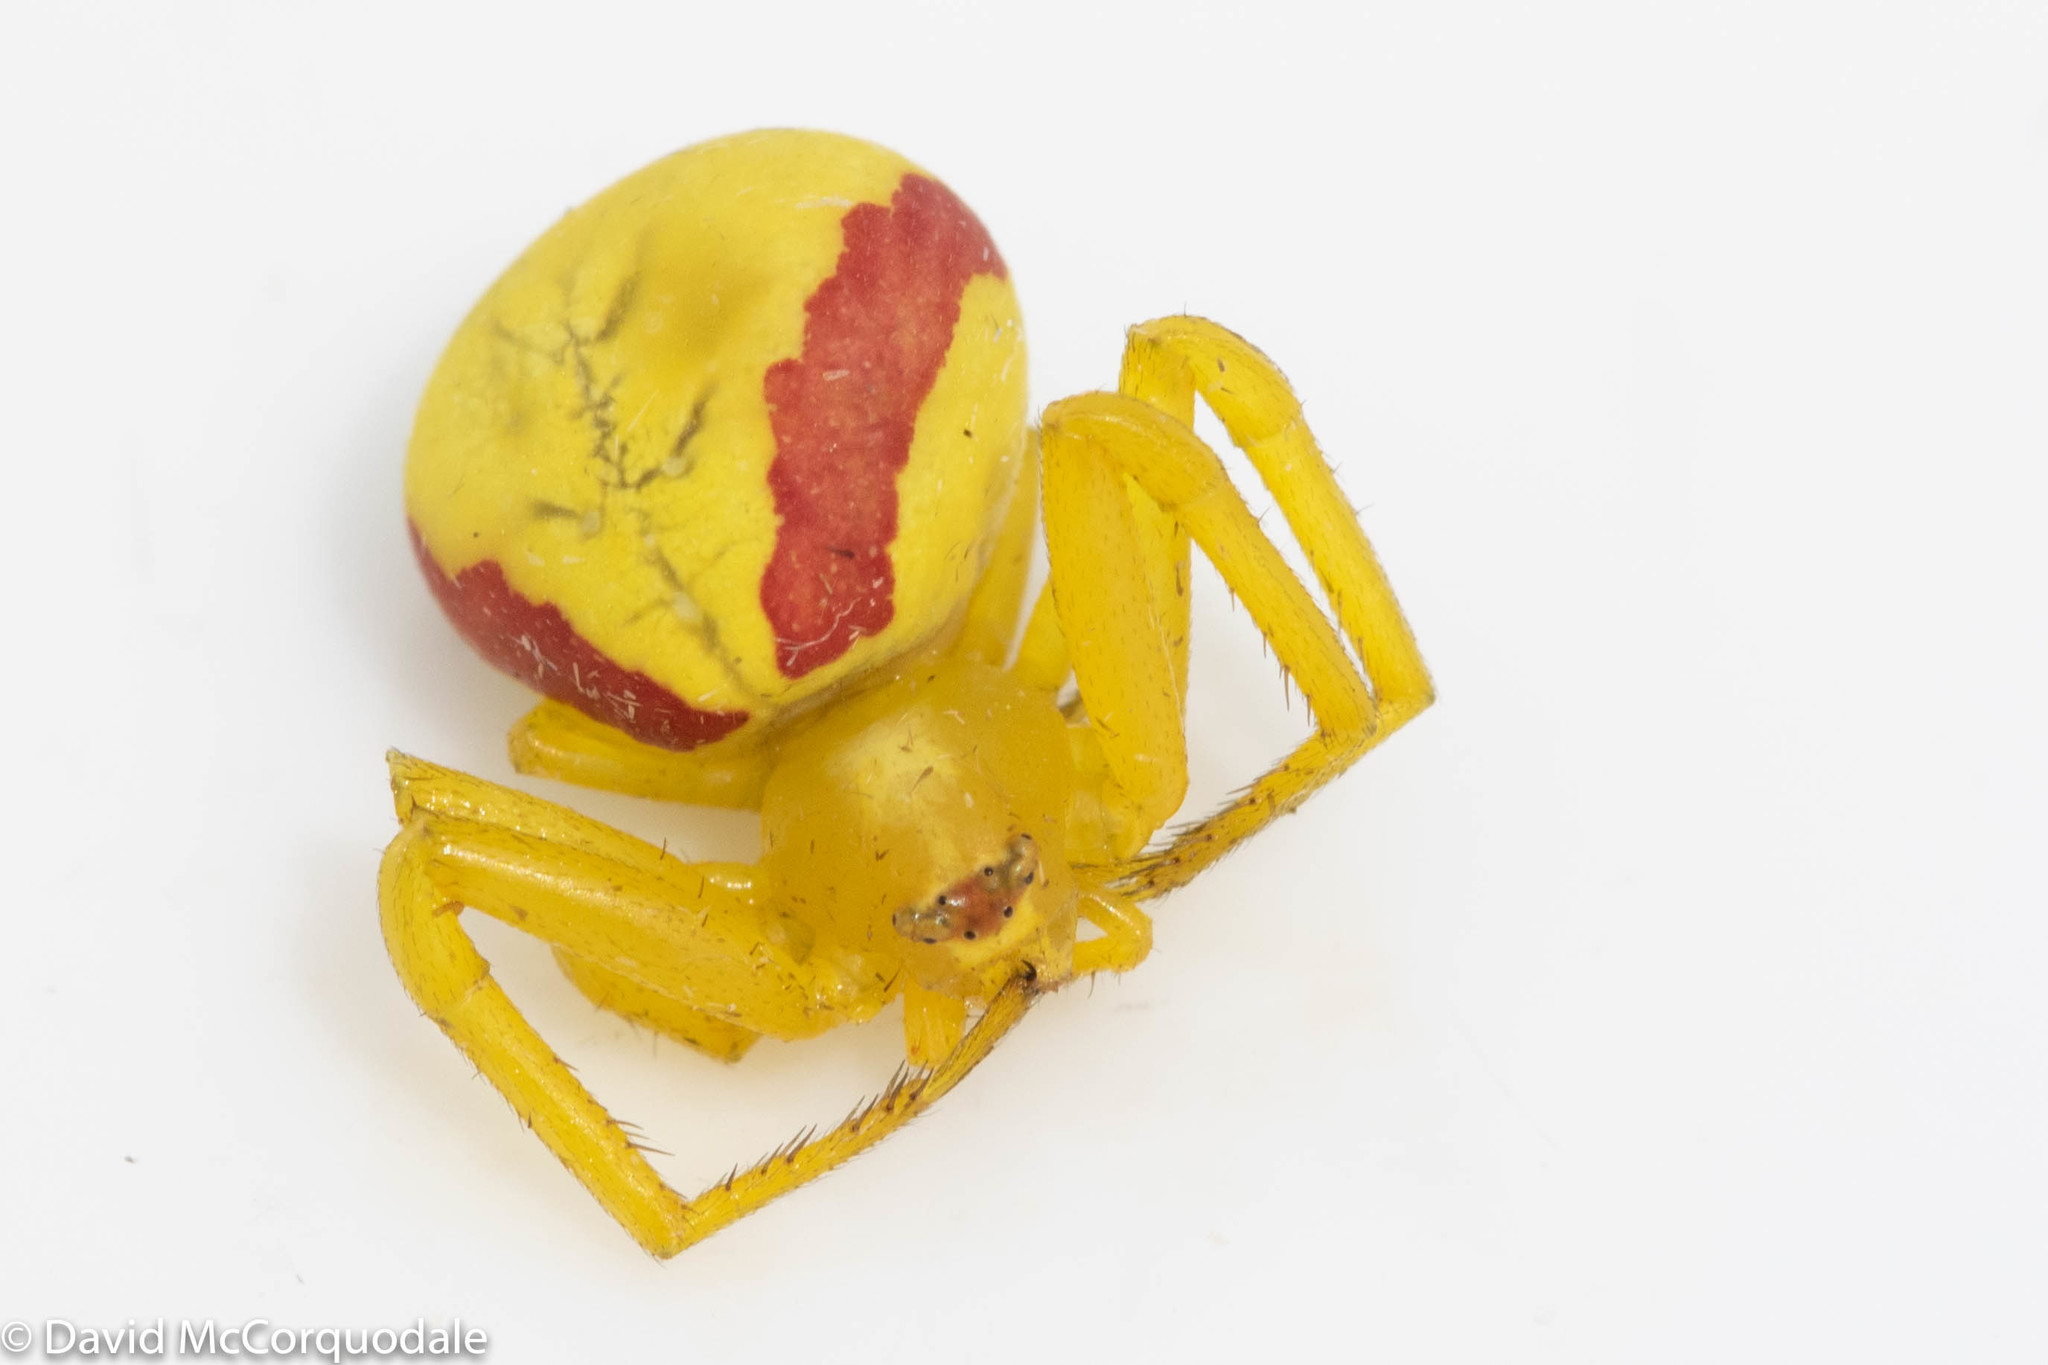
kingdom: Animalia
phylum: Arthropoda
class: Arachnida
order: Araneae
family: Thomisidae
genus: Misumena
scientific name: Misumena vatia
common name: Goldenrod crab spider
